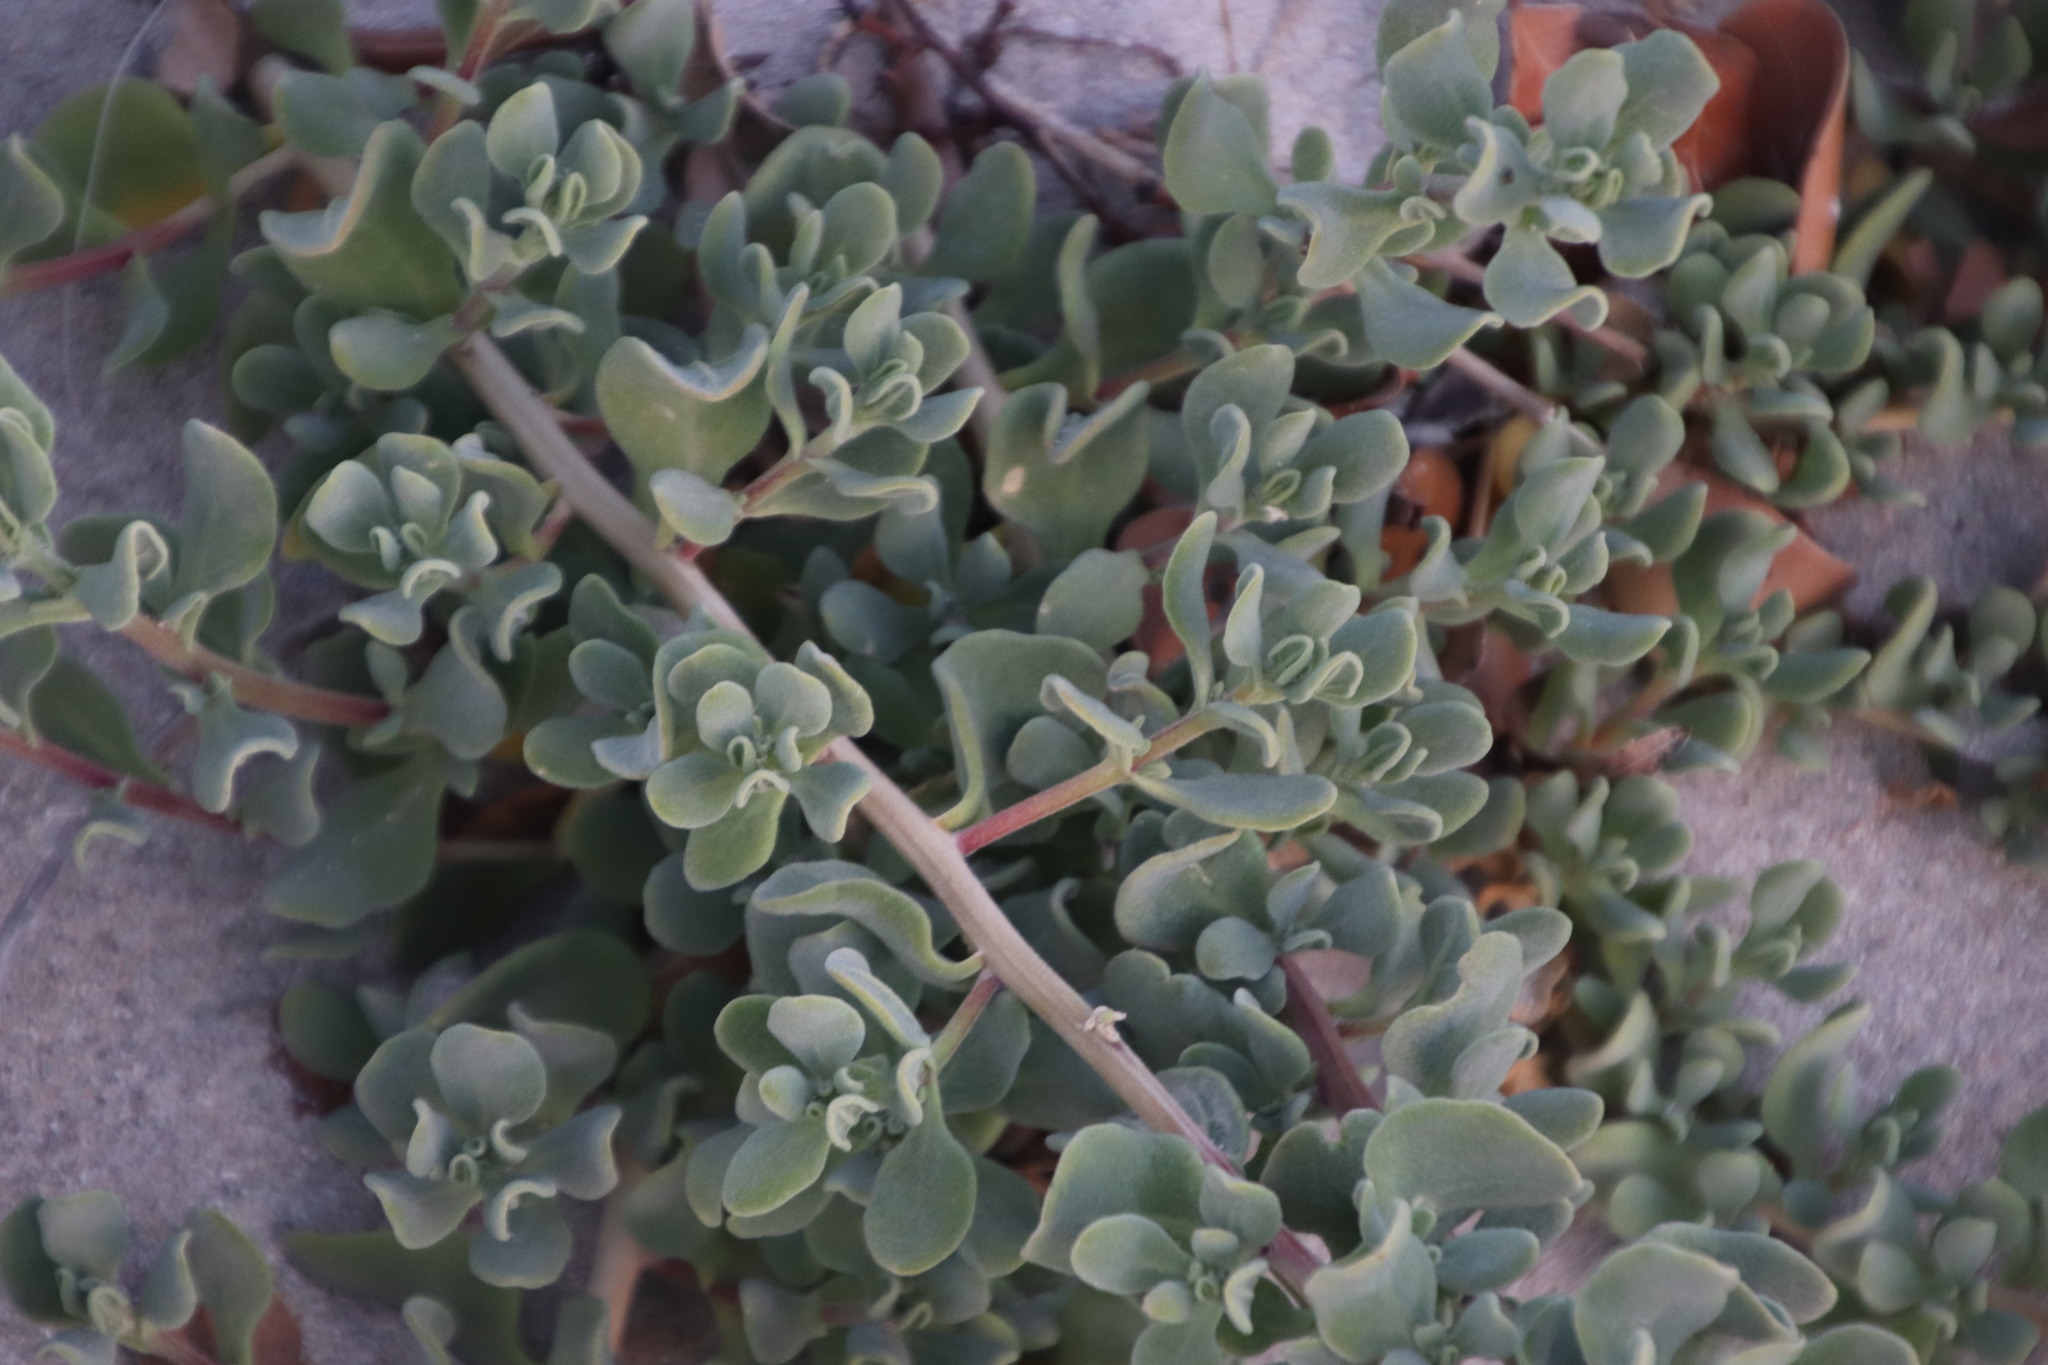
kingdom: Plantae
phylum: Tracheophyta
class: Magnoliopsida
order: Caryophyllales
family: Aizoaceae
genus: Tetragonia
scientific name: Tetragonia decumbens
